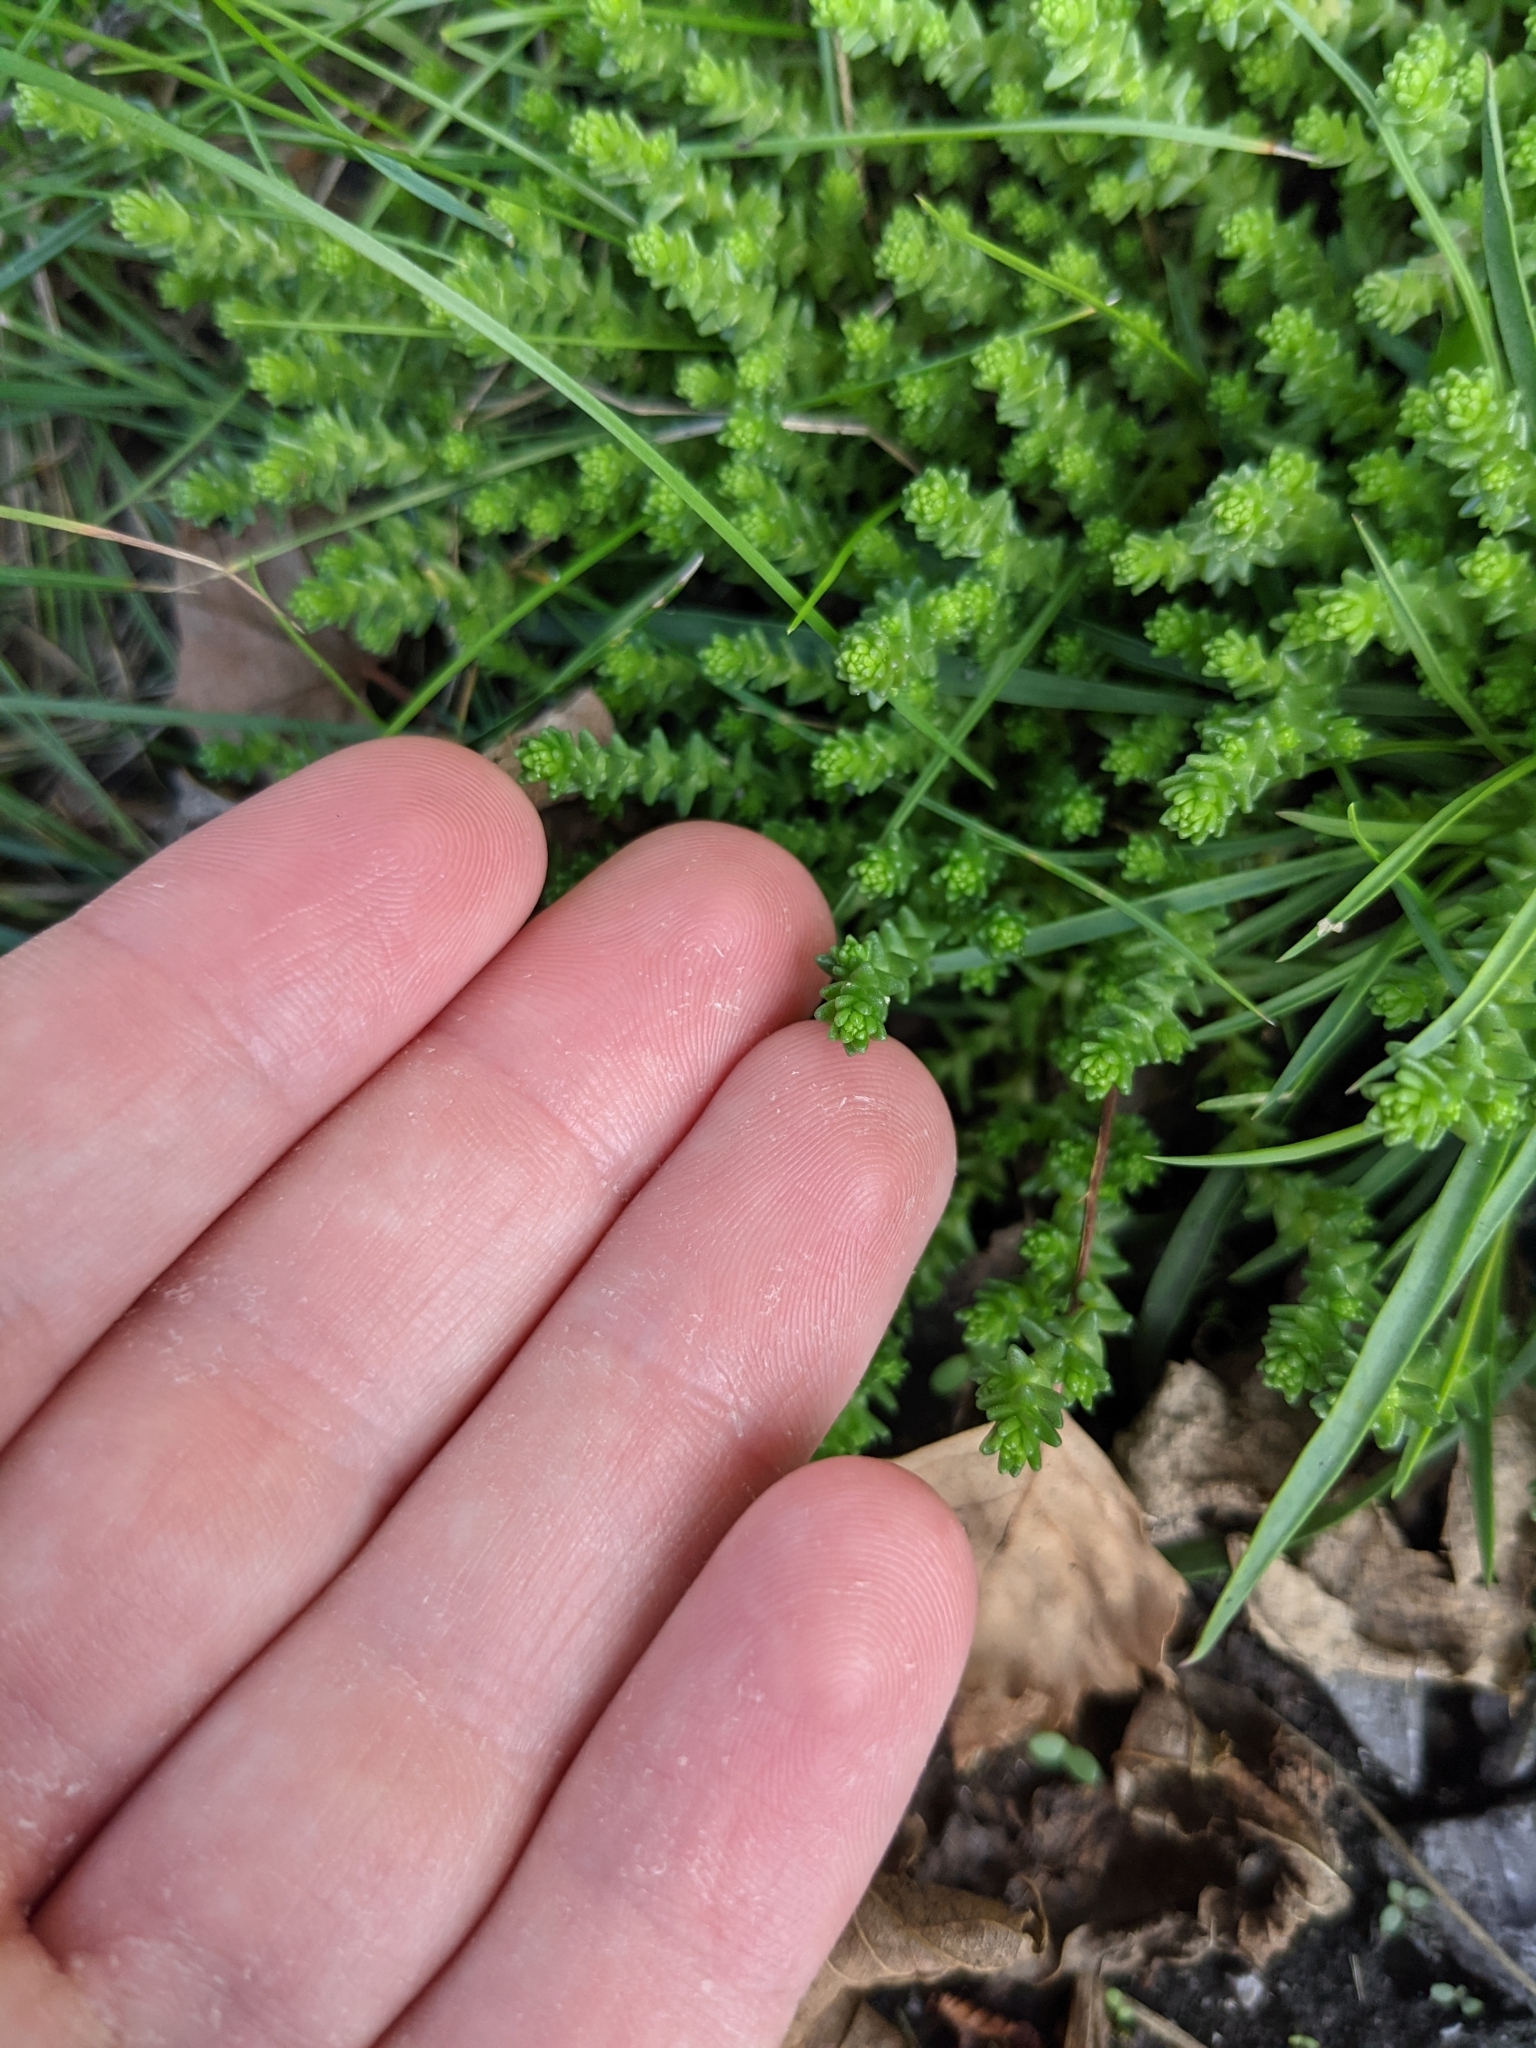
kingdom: Plantae
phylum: Tracheophyta
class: Magnoliopsida
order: Saxifragales
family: Crassulaceae
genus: Sedum
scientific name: Sedum acre
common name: Biting stonecrop
